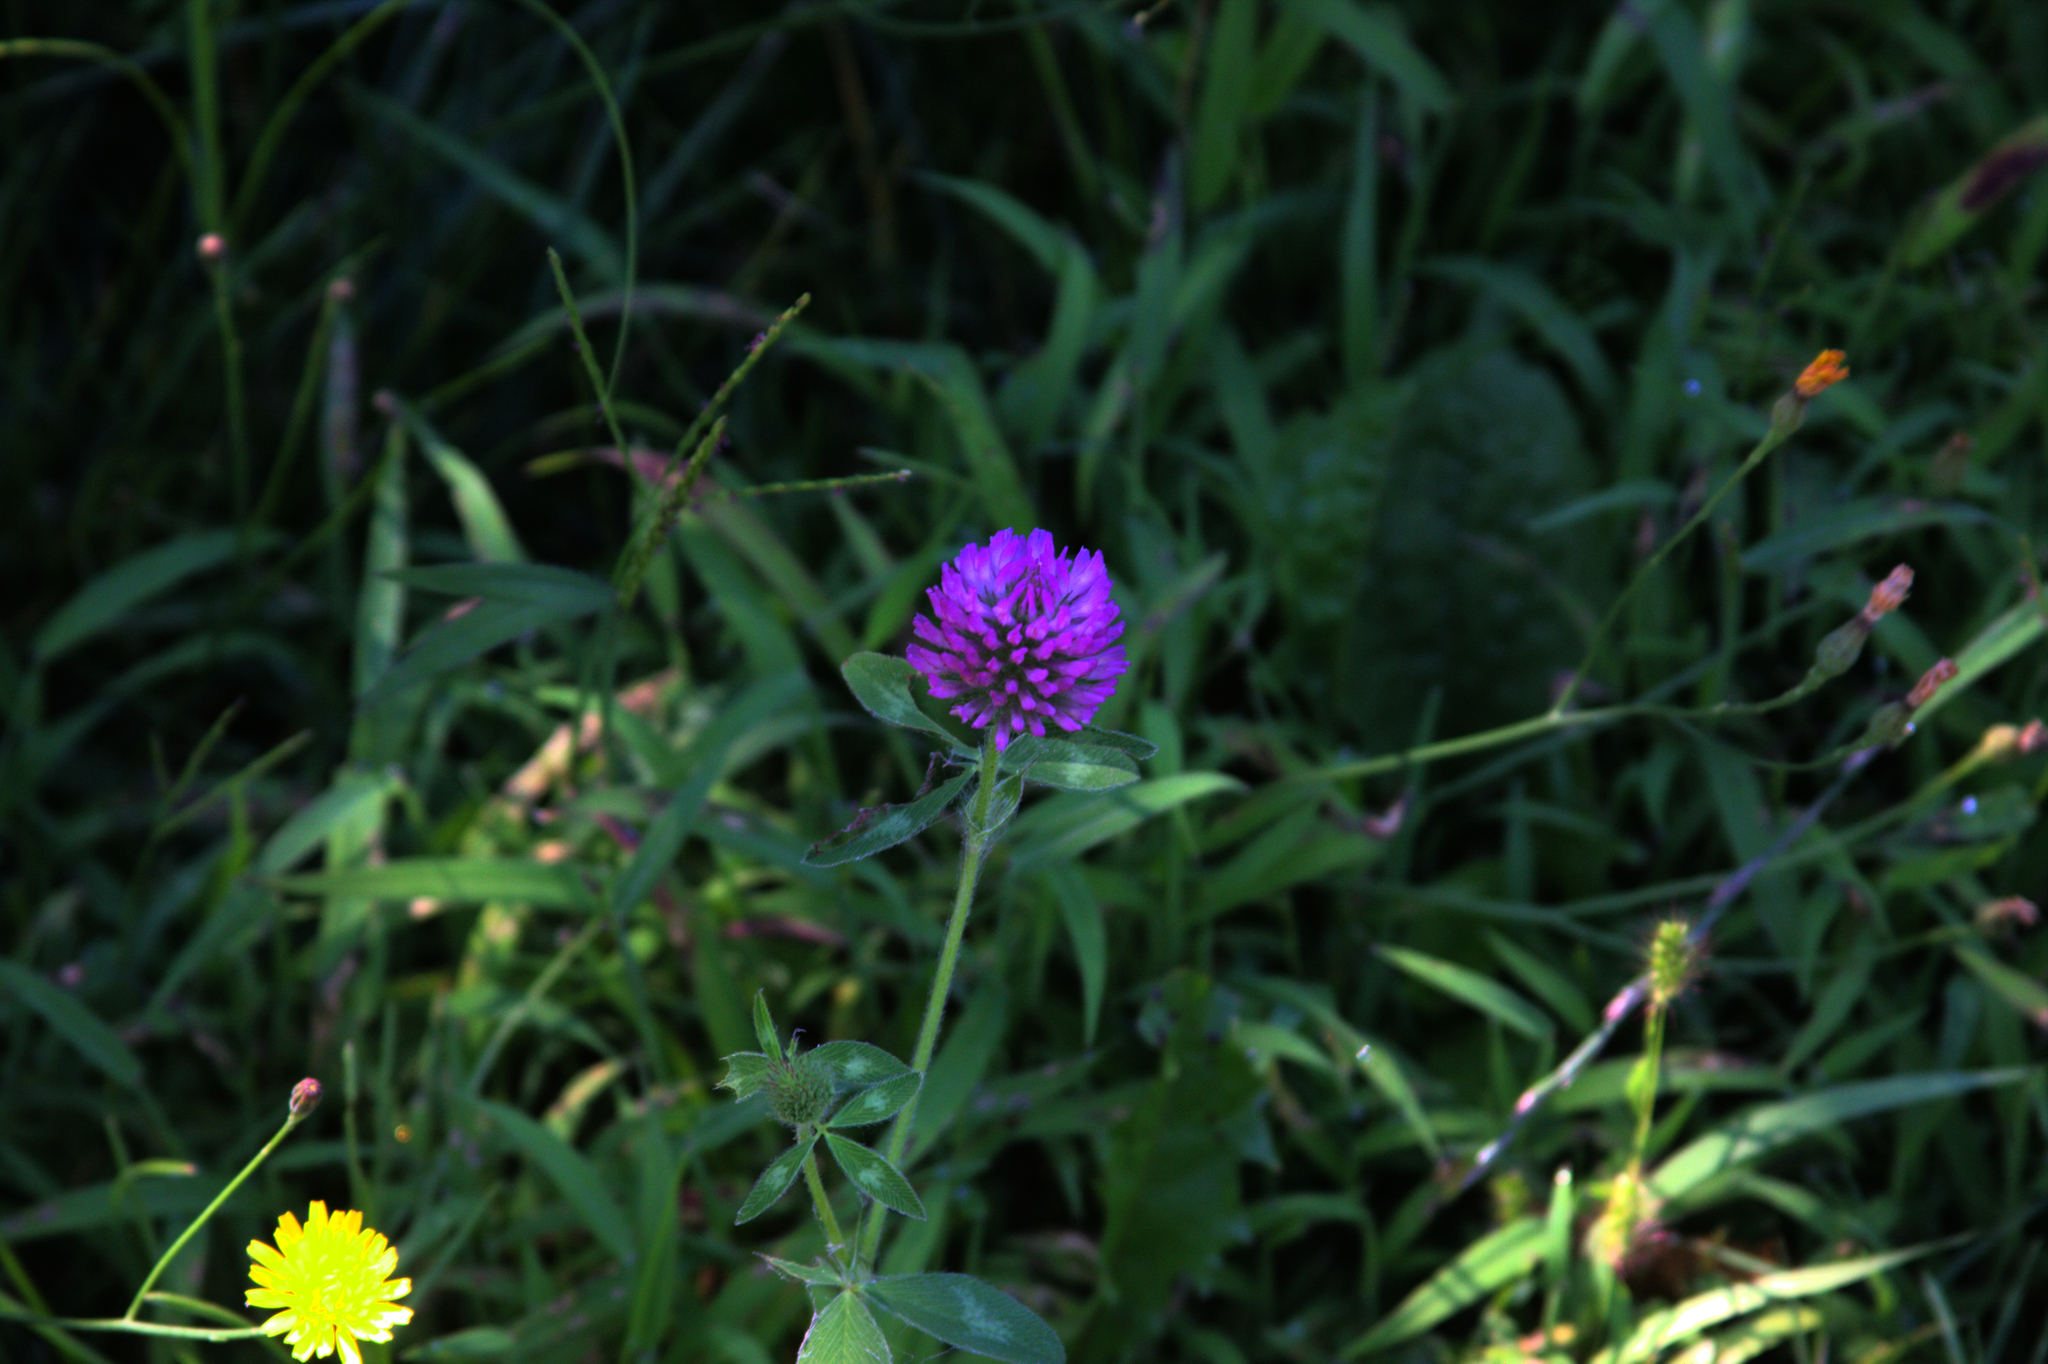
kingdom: Plantae
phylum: Tracheophyta
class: Magnoliopsida
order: Fabales
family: Fabaceae
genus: Trifolium
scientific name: Trifolium pratense
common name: Red clover
